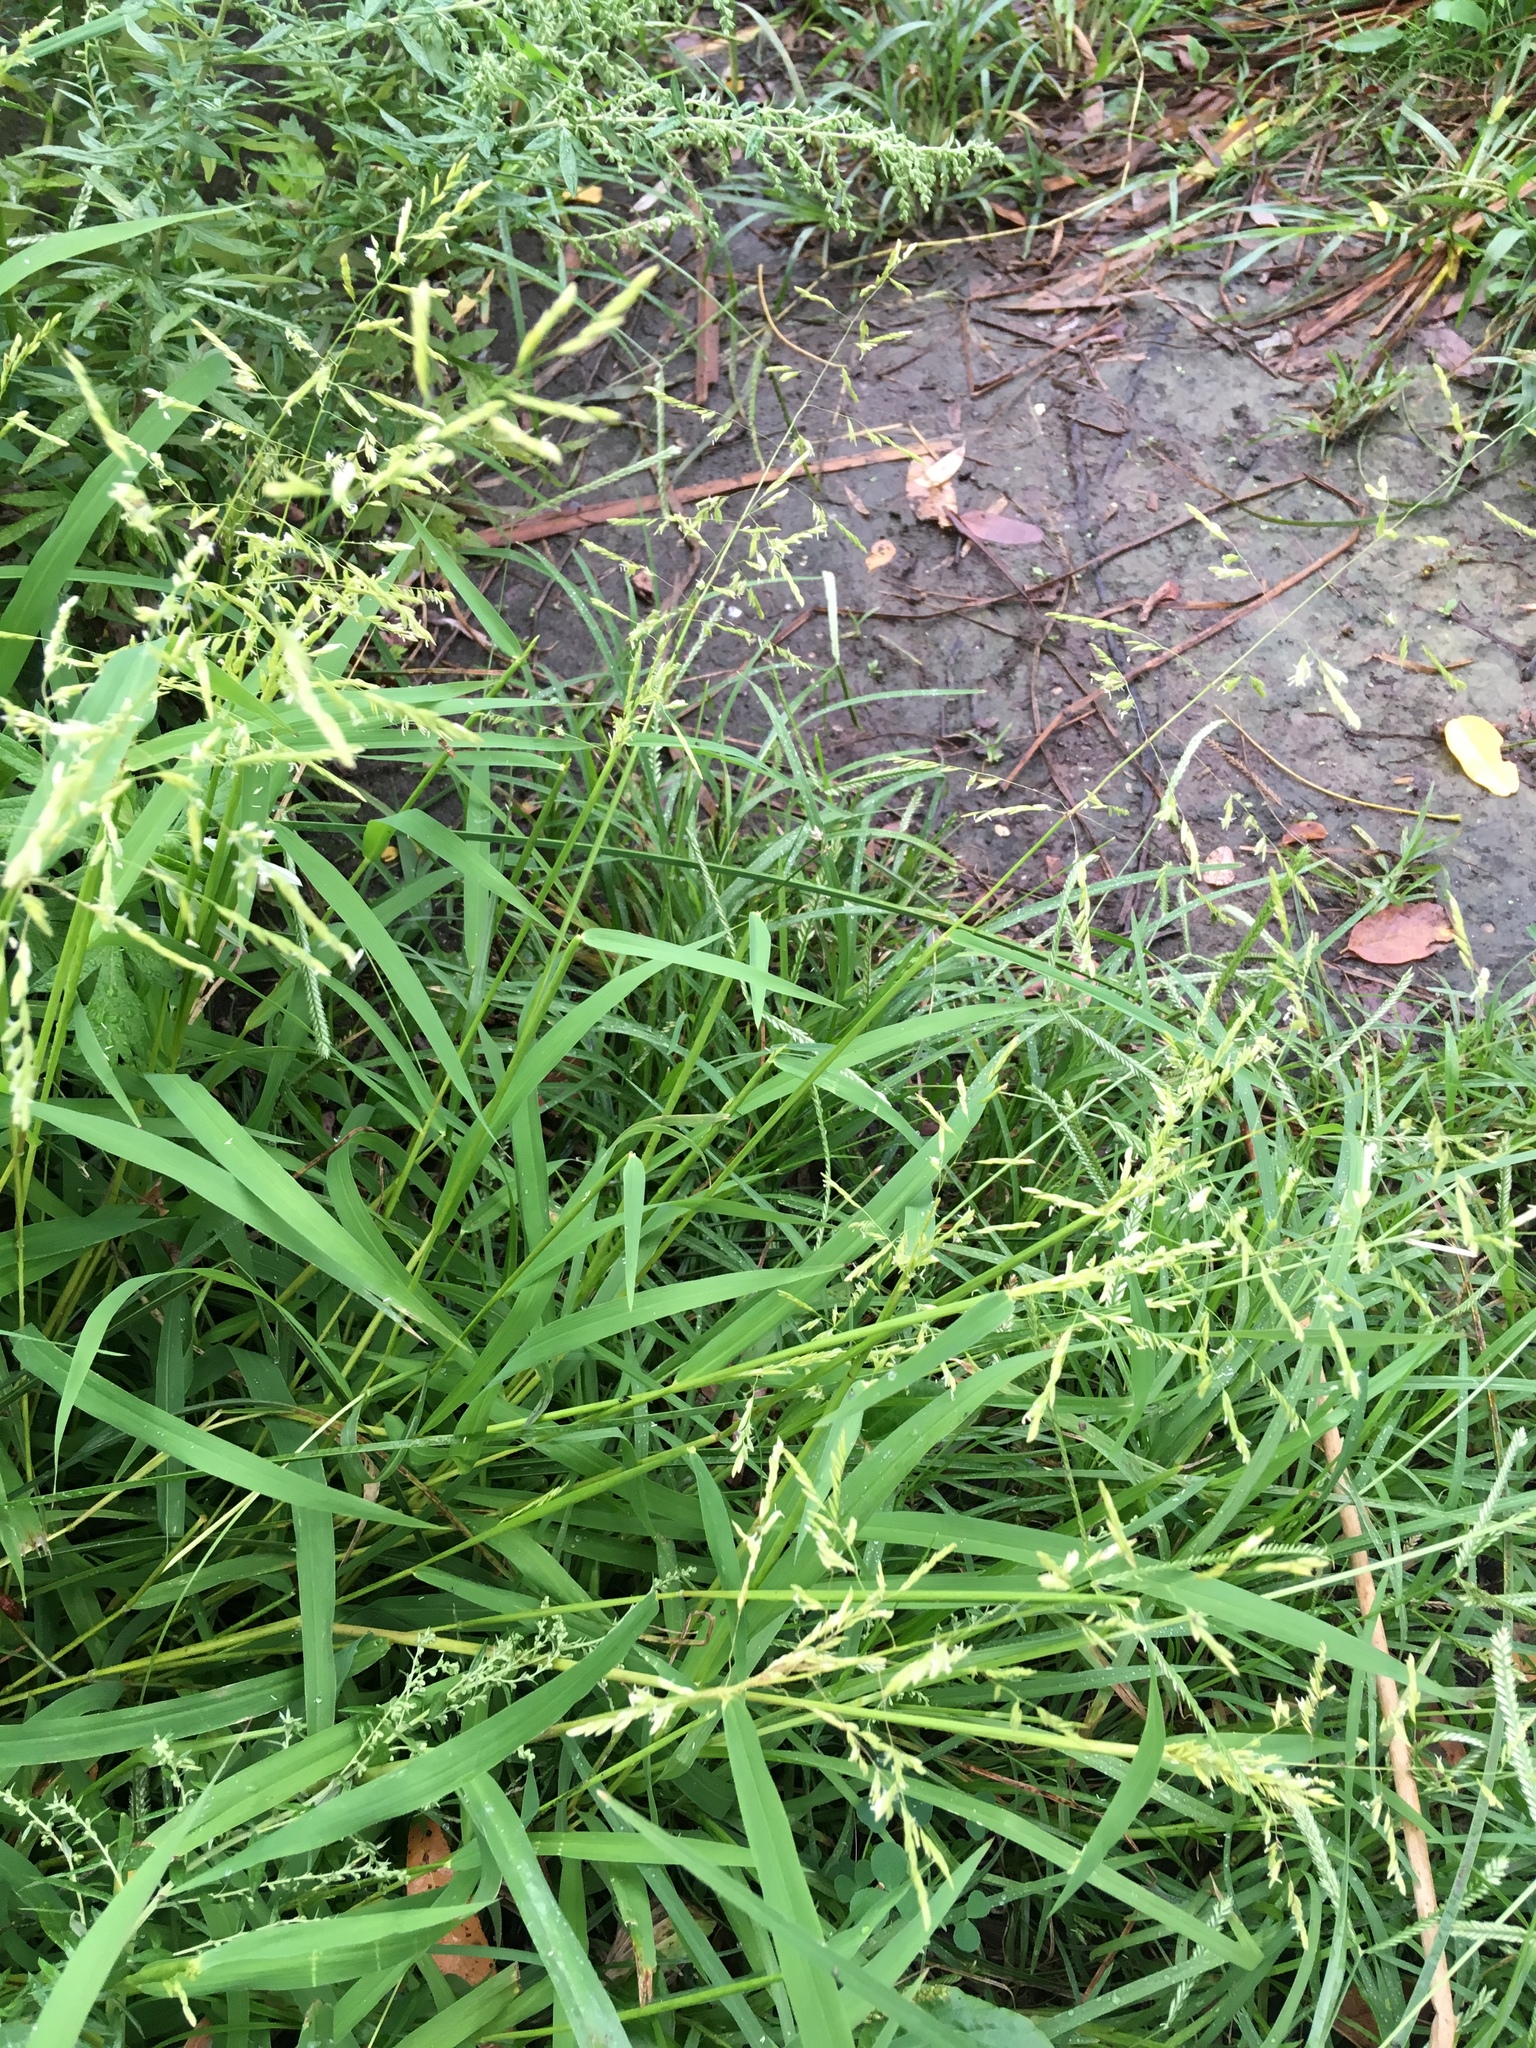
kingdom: Plantae
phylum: Tracheophyta
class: Liliopsida
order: Poales
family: Poaceae
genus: Leersia
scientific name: Leersia oryzoides
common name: Cut-grass
